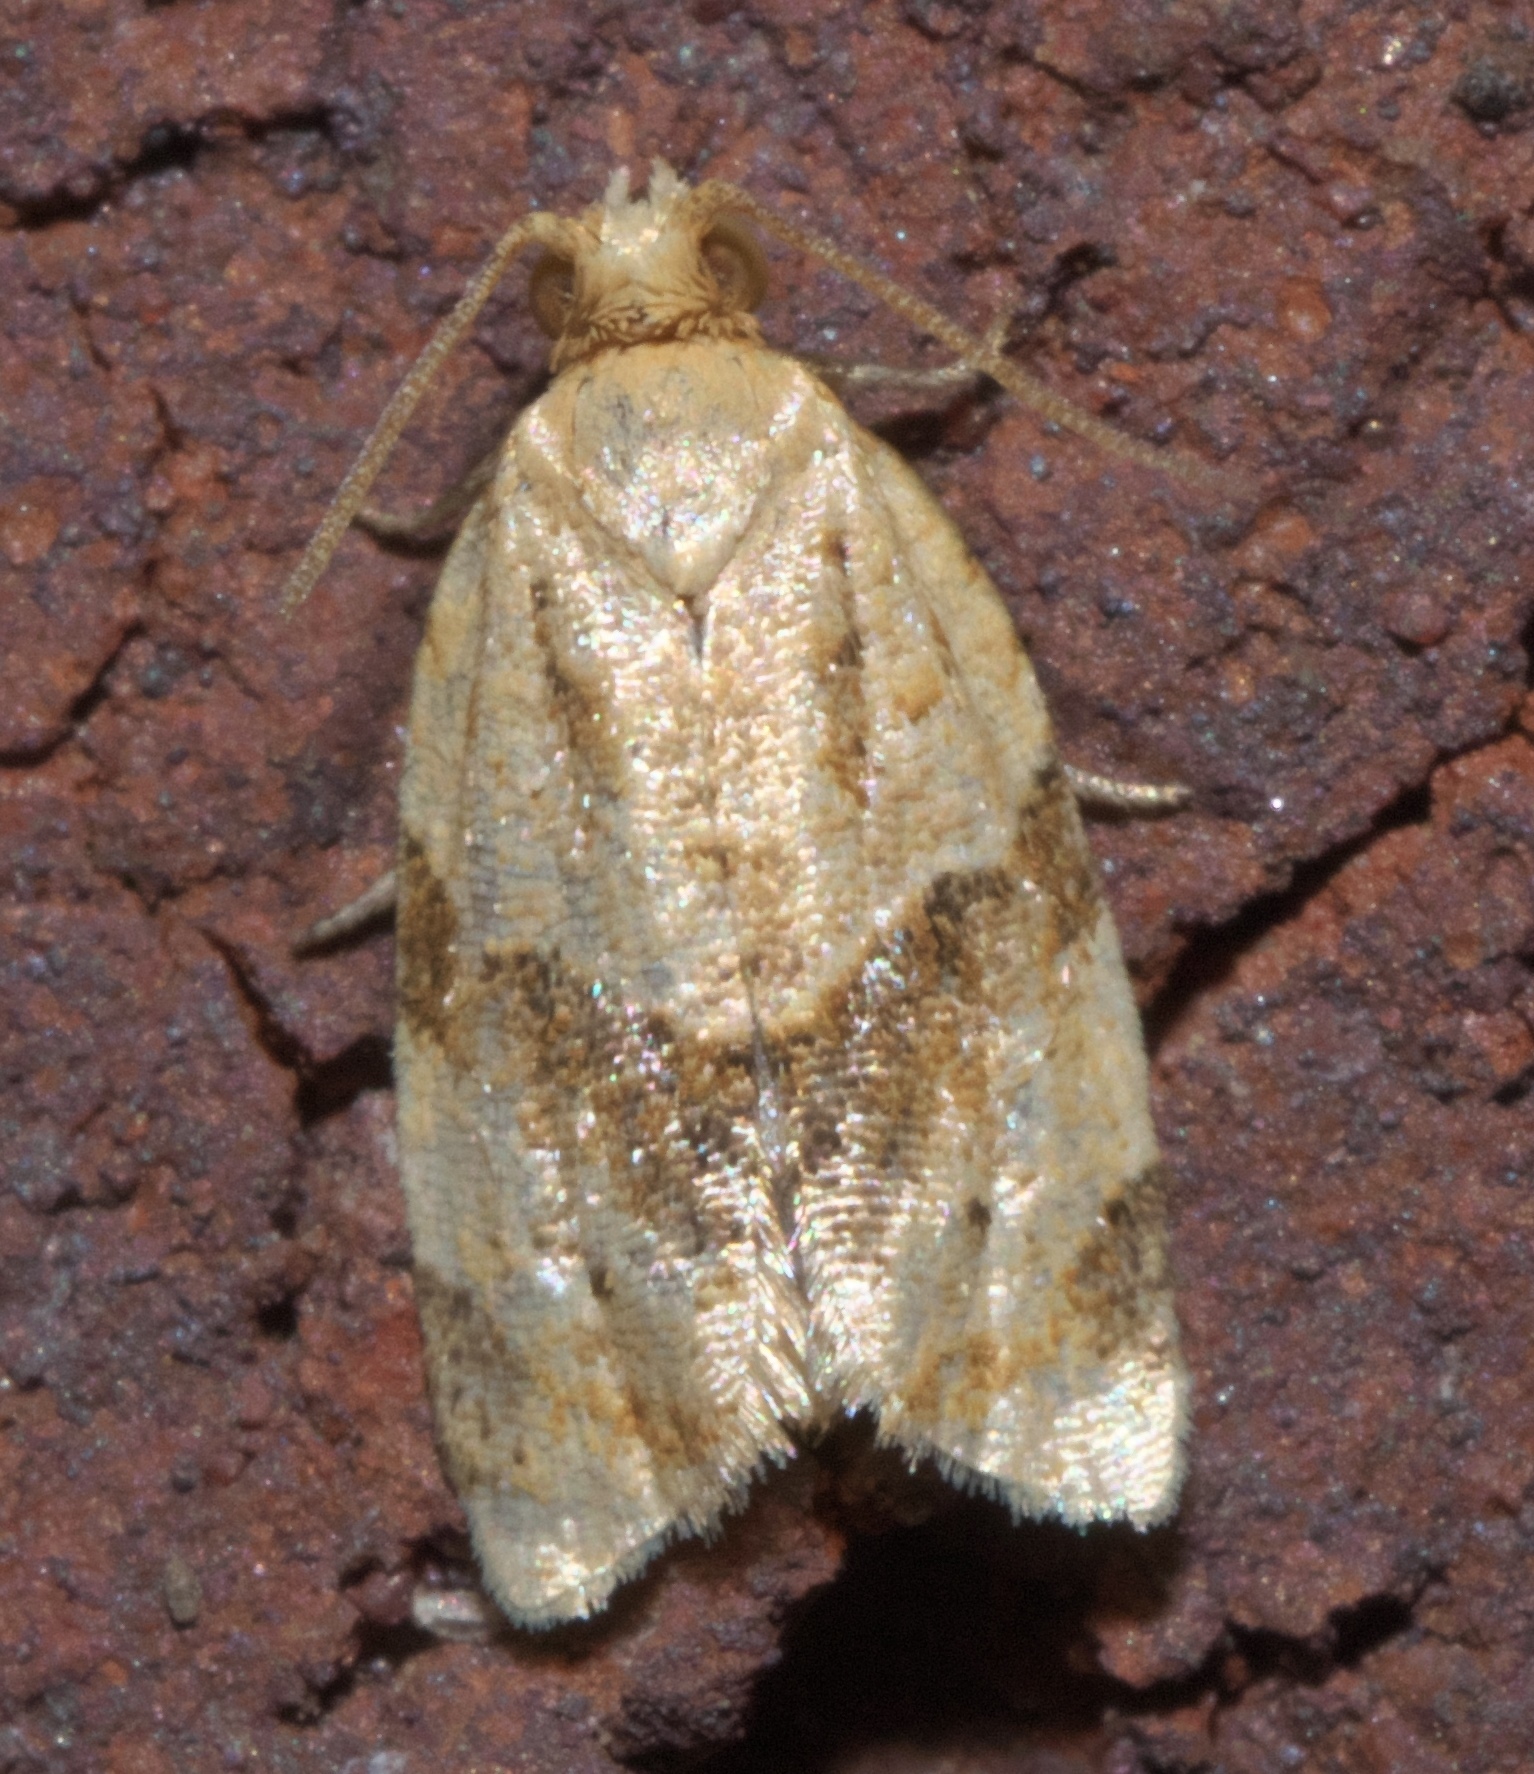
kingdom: Animalia
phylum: Arthropoda
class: Insecta
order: Lepidoptera
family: Tortricidae
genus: Clepsis
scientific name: Clepsis peritana
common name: Garden tortrix
